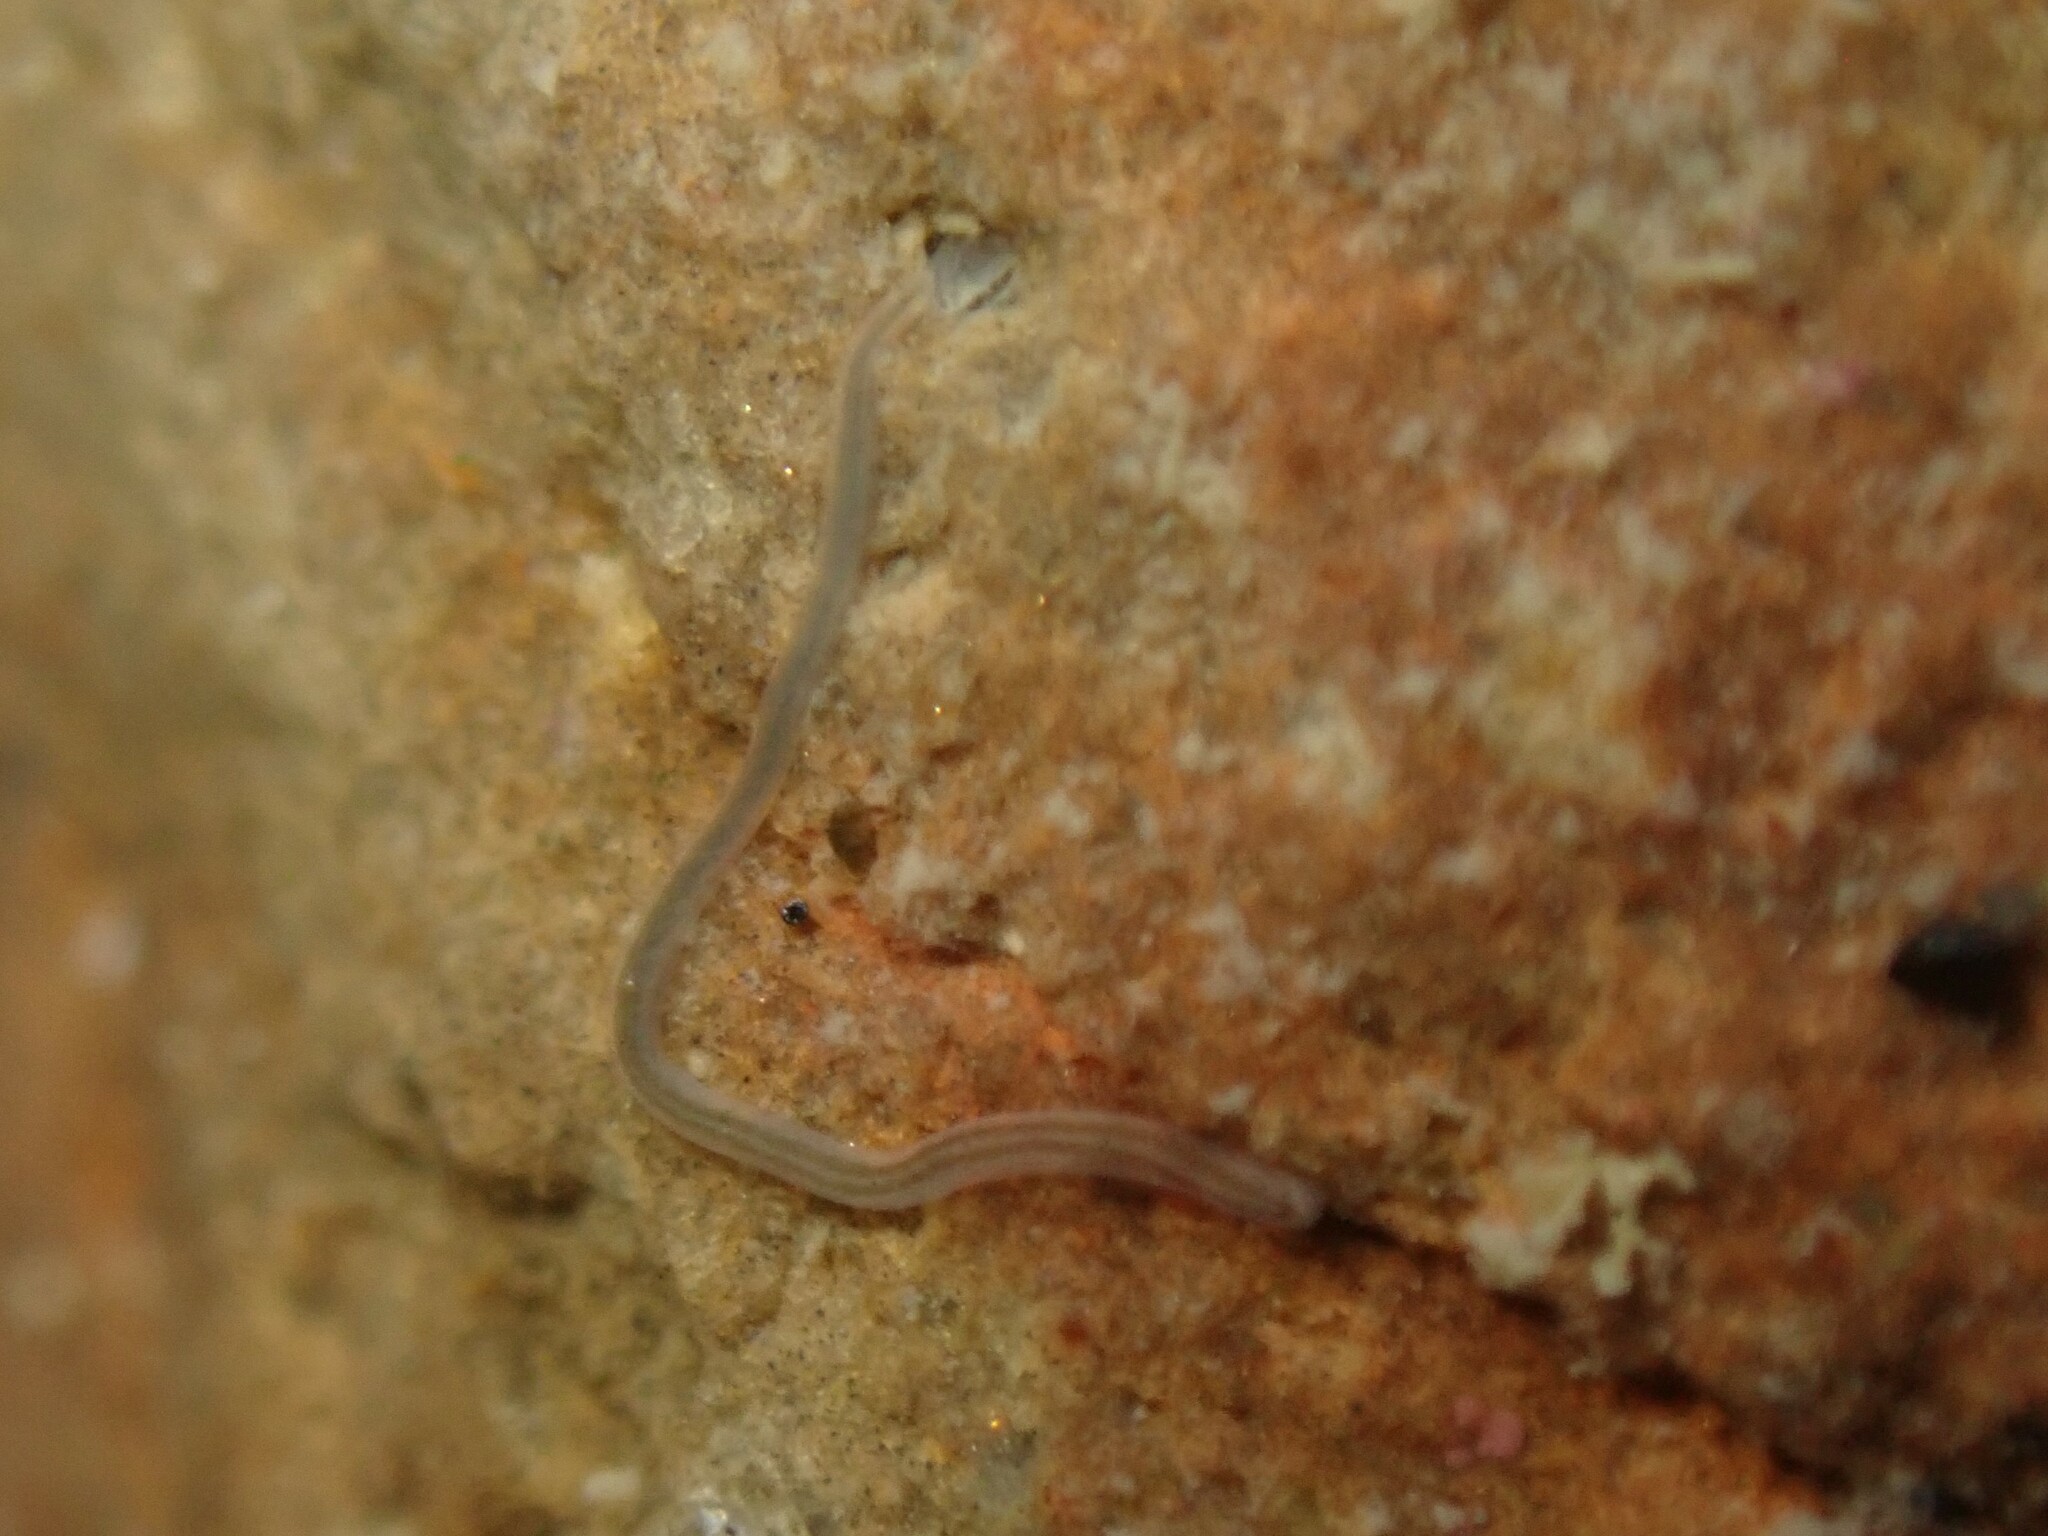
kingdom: Animalia
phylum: Nemertea
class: Hoplonemertea
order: Monostilifera
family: Emplectonematidae
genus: Nemertopsis
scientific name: Nemertopsis bivittata
